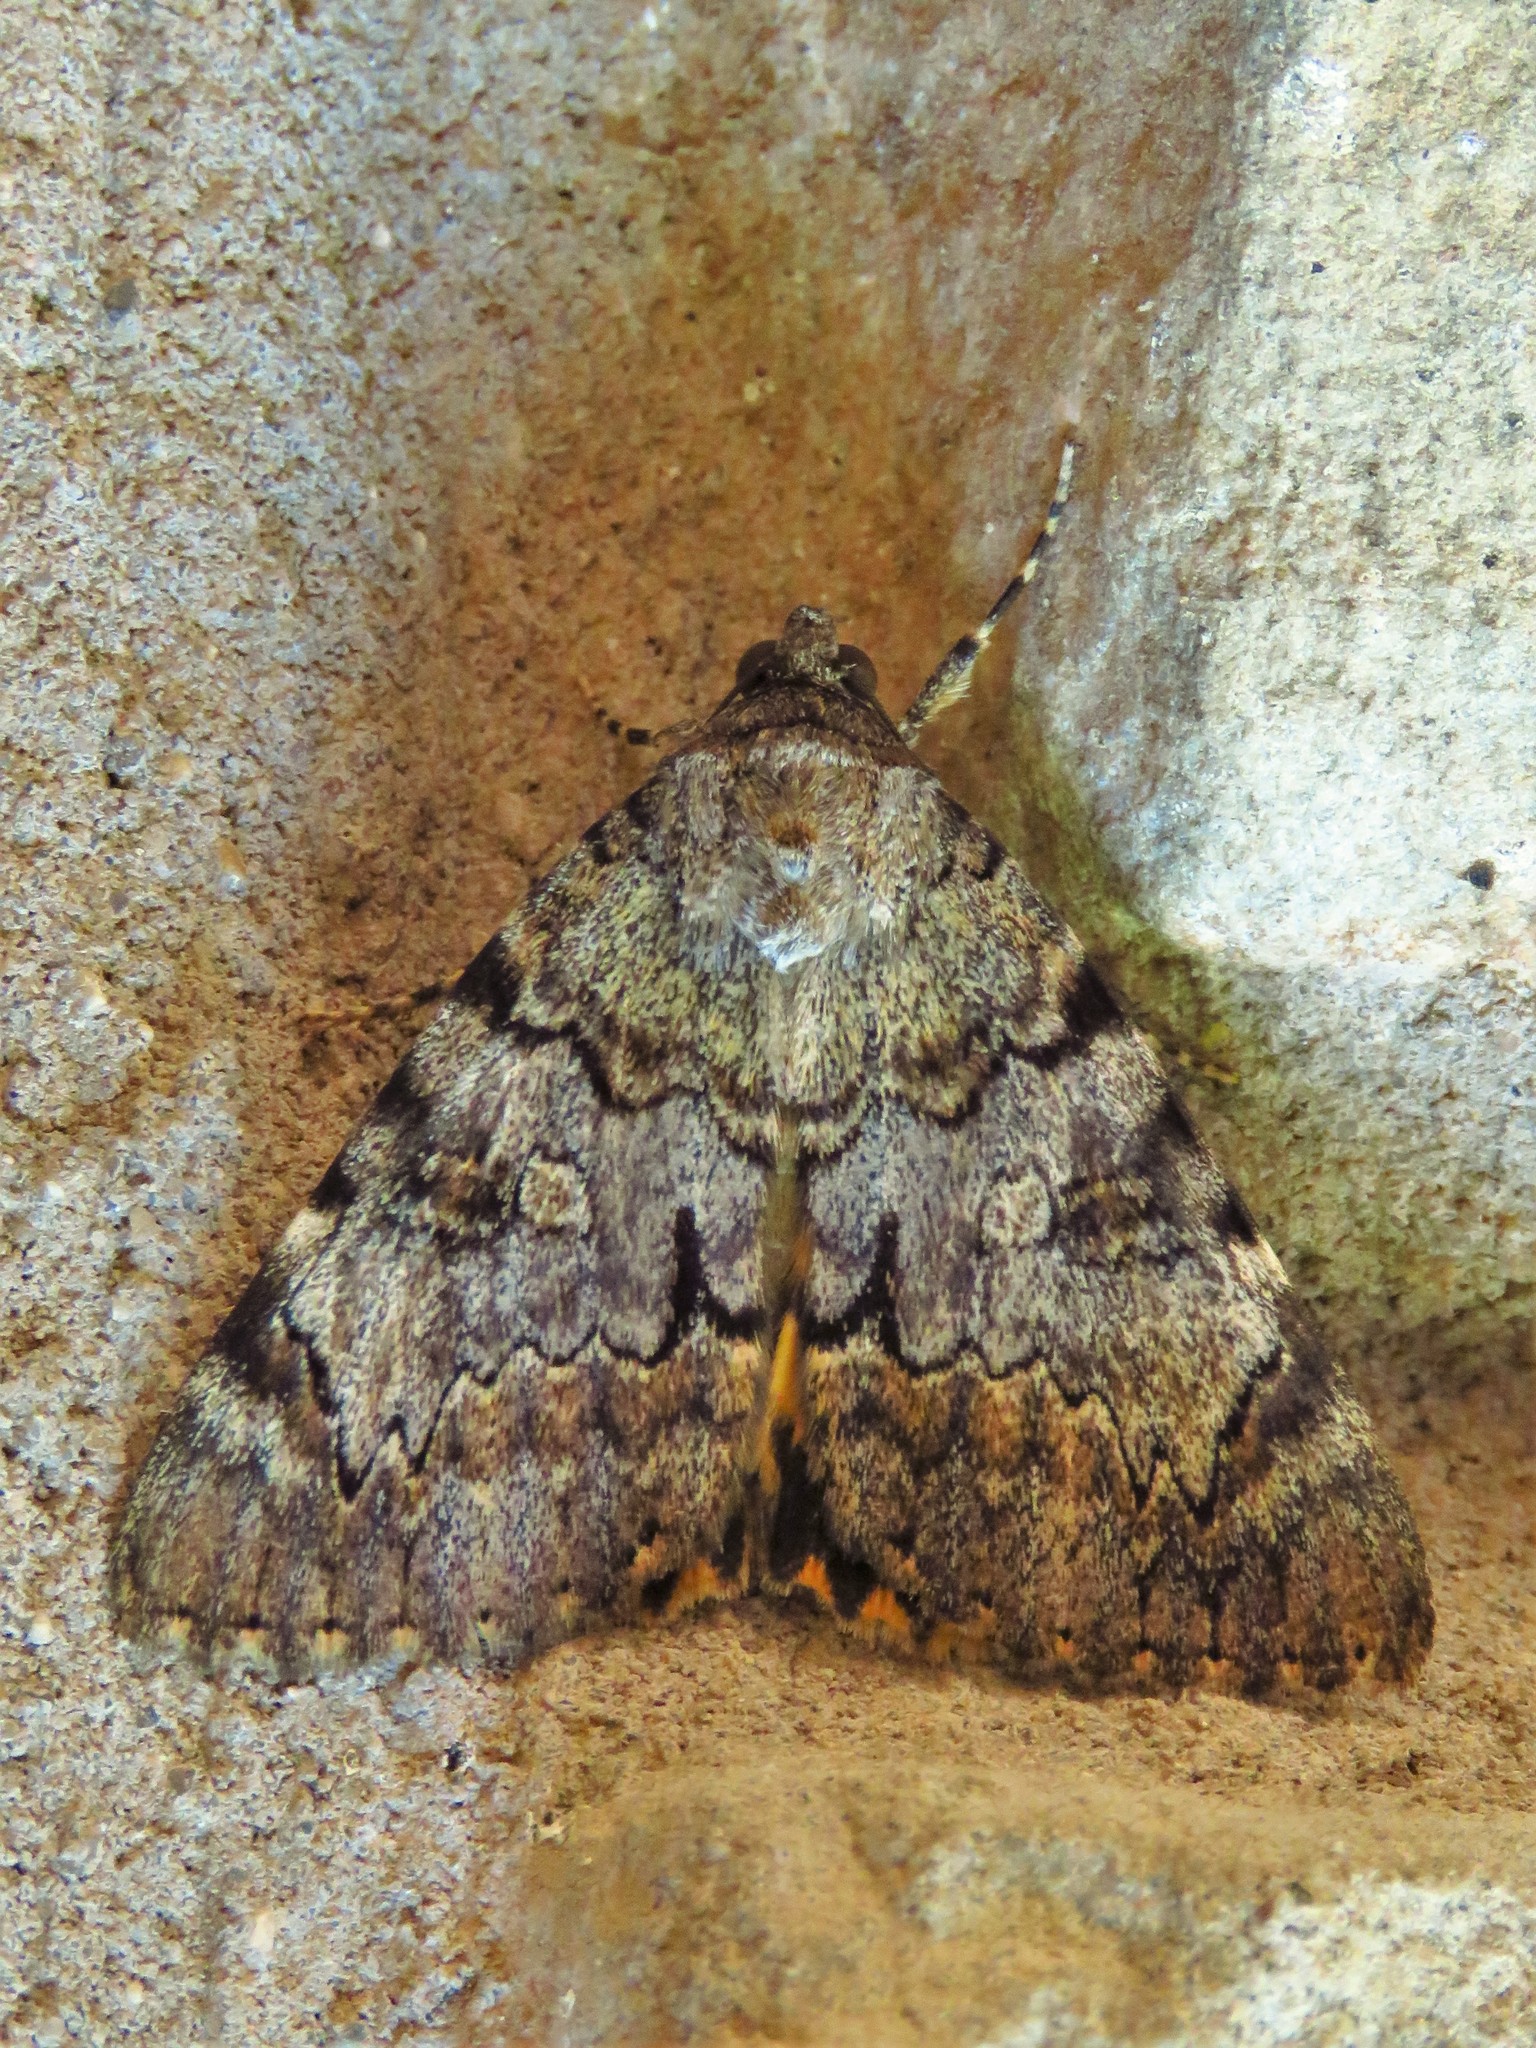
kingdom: Animalia
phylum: Arthropoda
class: Insecta
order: Lepidoptera
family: Erebidae
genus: Catocala
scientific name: Catocala desdemona
